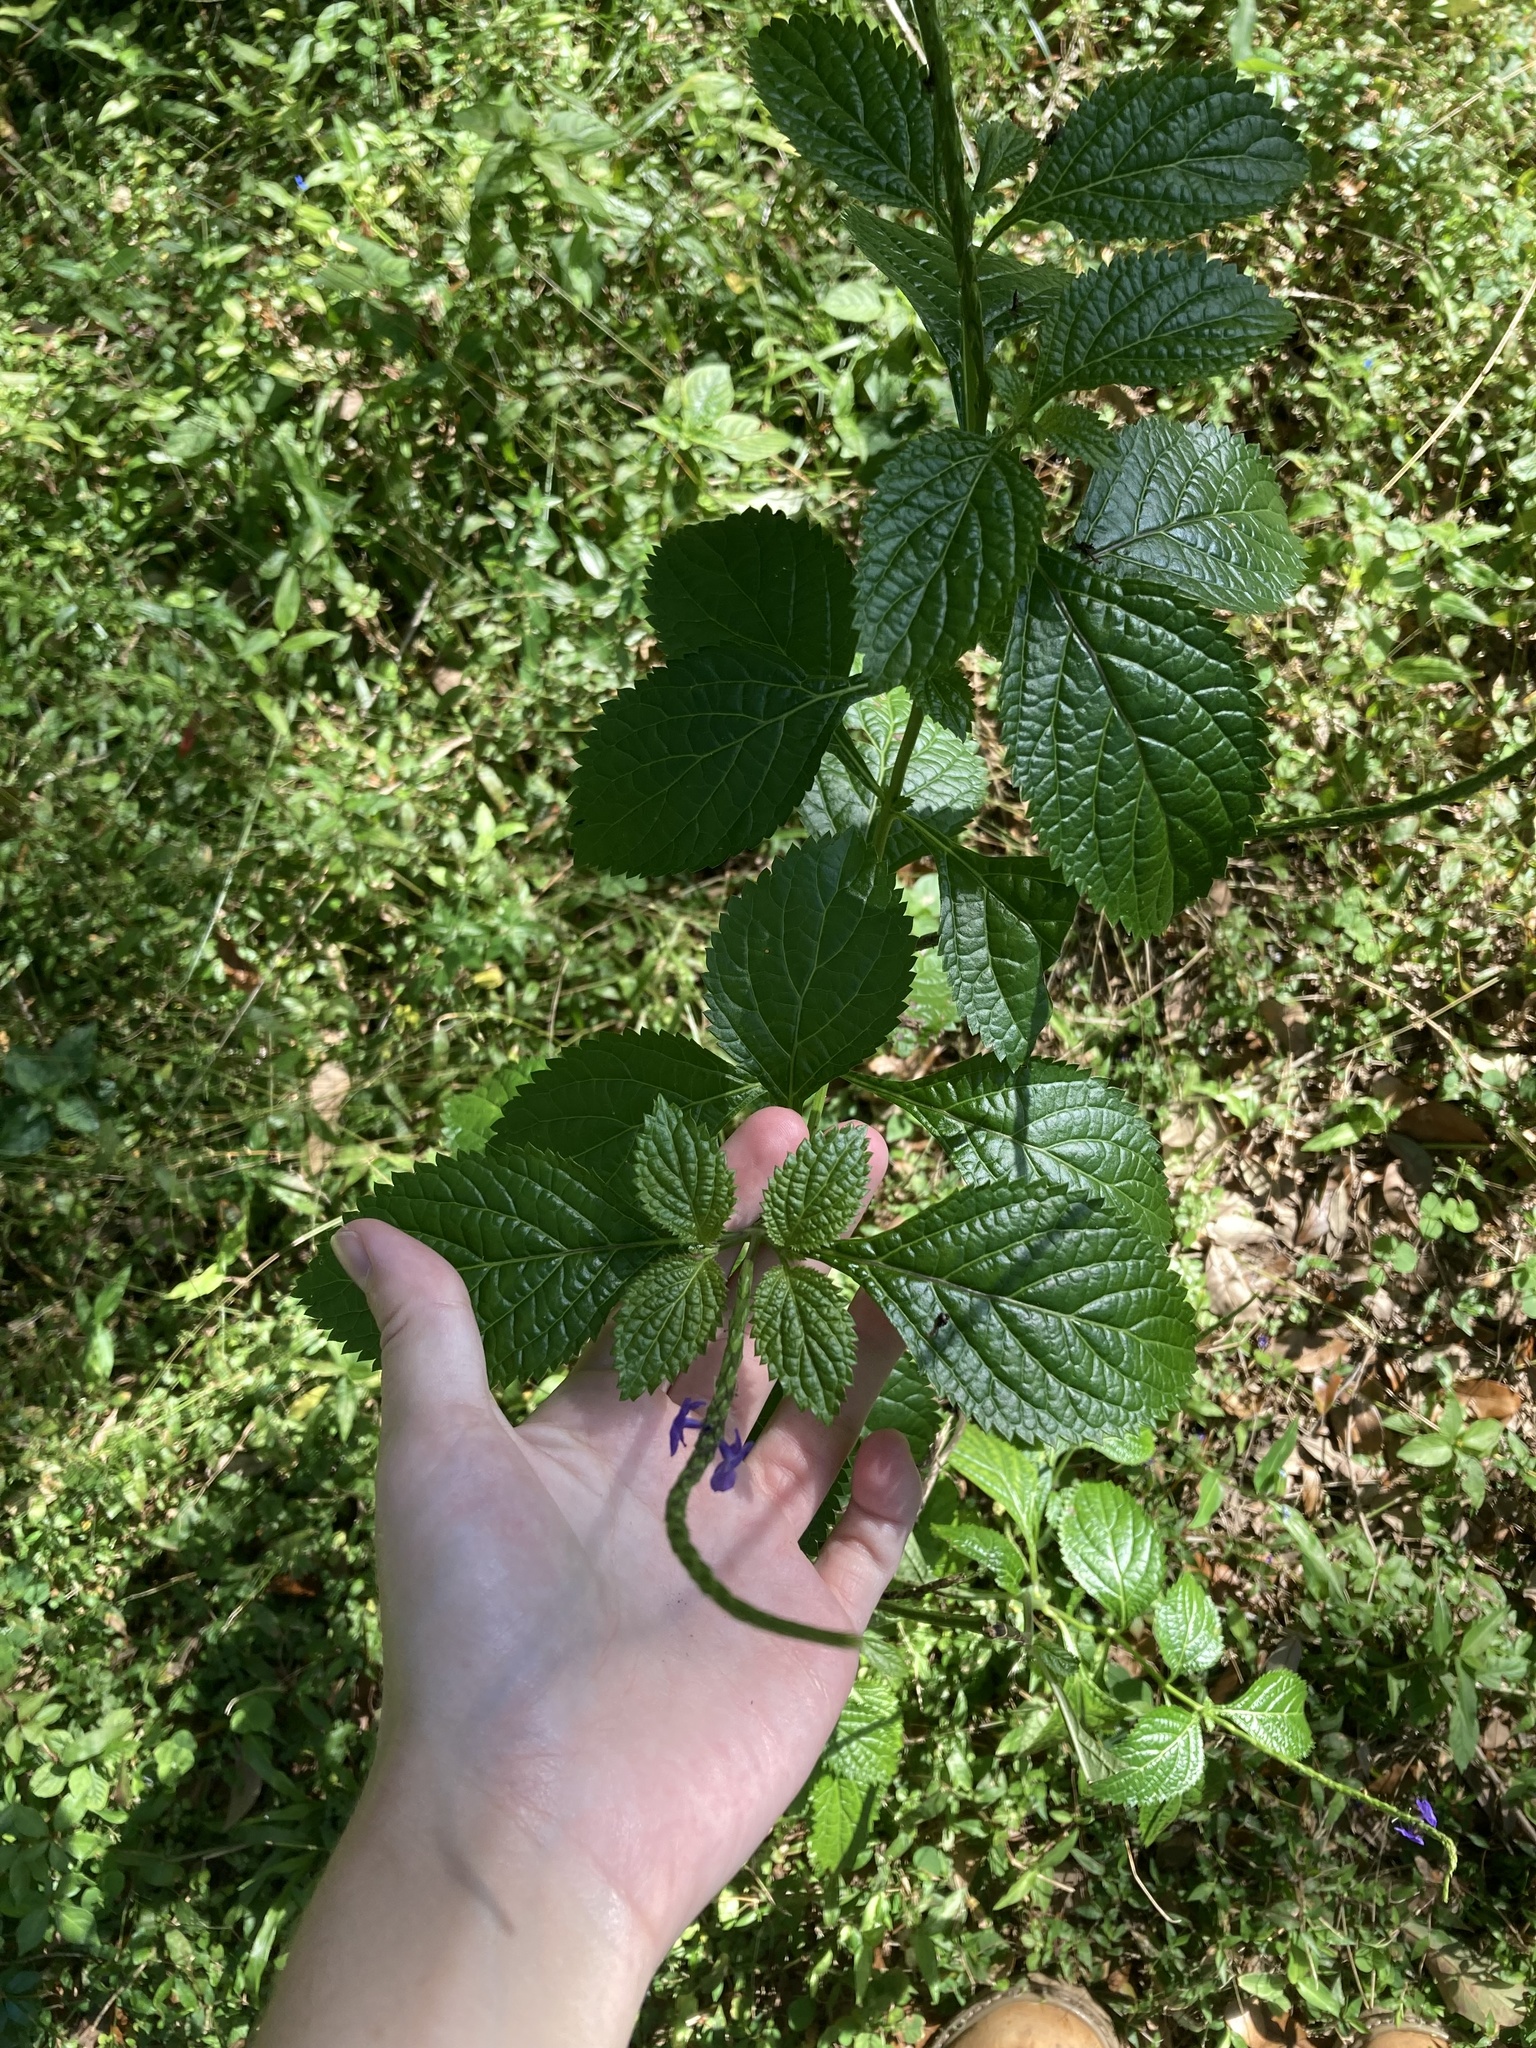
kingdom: Plantae
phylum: Tracheophyta
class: Magnoliopsida
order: Lamiales
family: Verbenaceae
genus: Stachytarpheta
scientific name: Stachytarpheta cayennensis
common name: Cayenne porterweed
